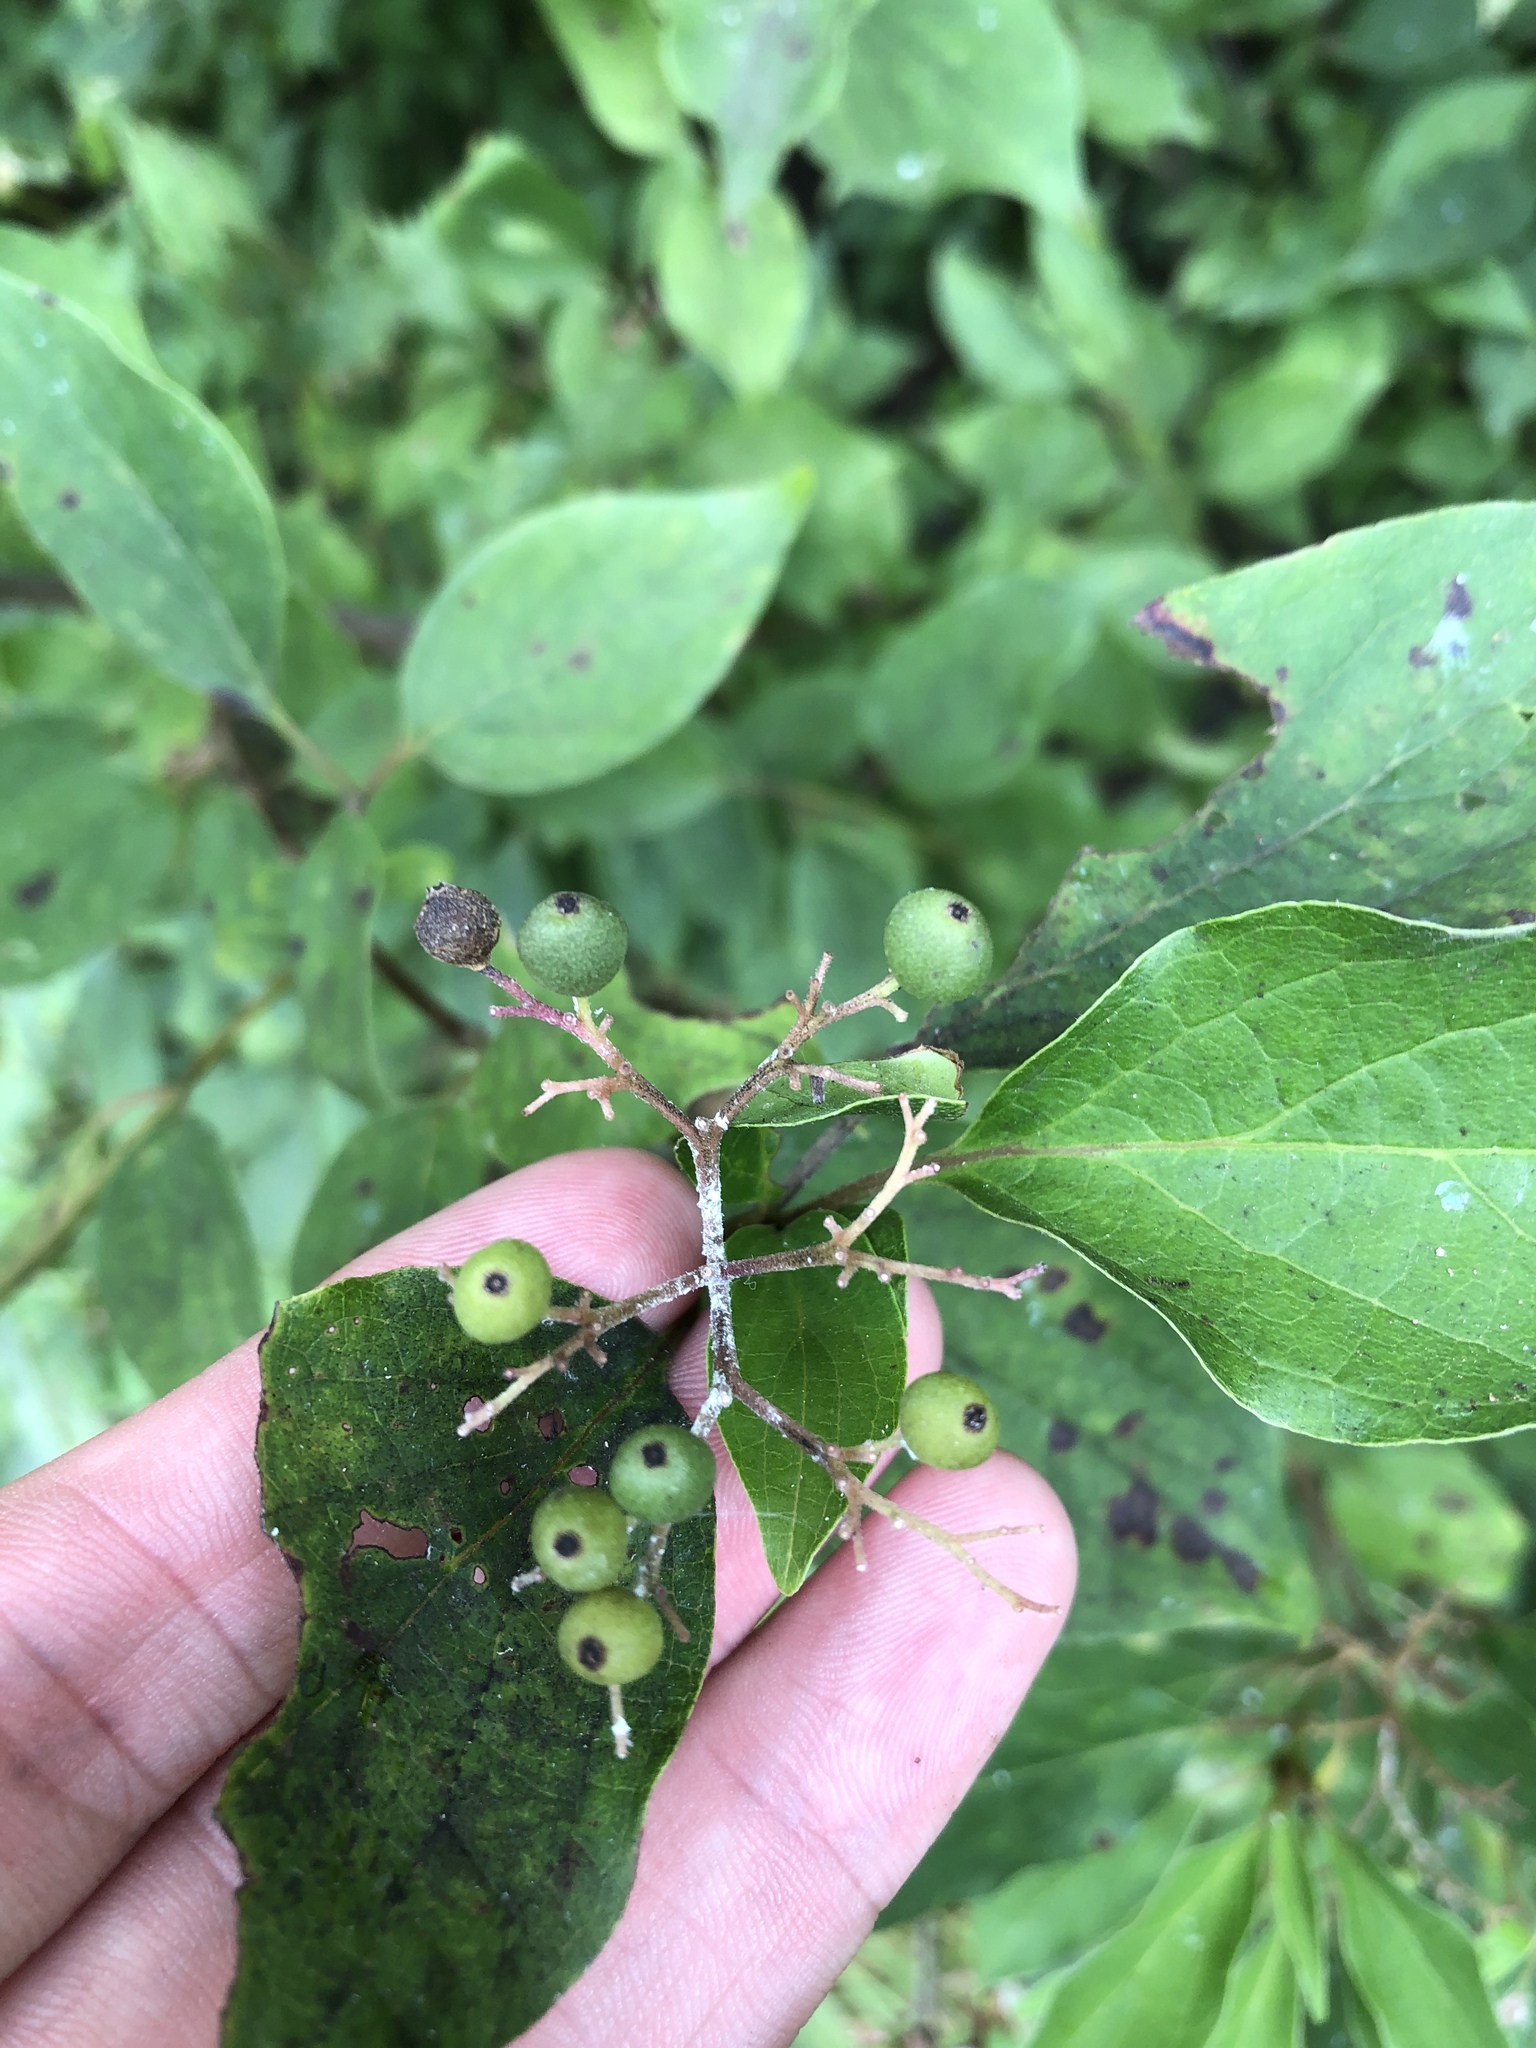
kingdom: Plantae
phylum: Tracheophyta
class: Magnoliopsida
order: Cornales
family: Cornaceae
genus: Cornus
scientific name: Cornus drummondii
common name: Rough-leaf dogwood
